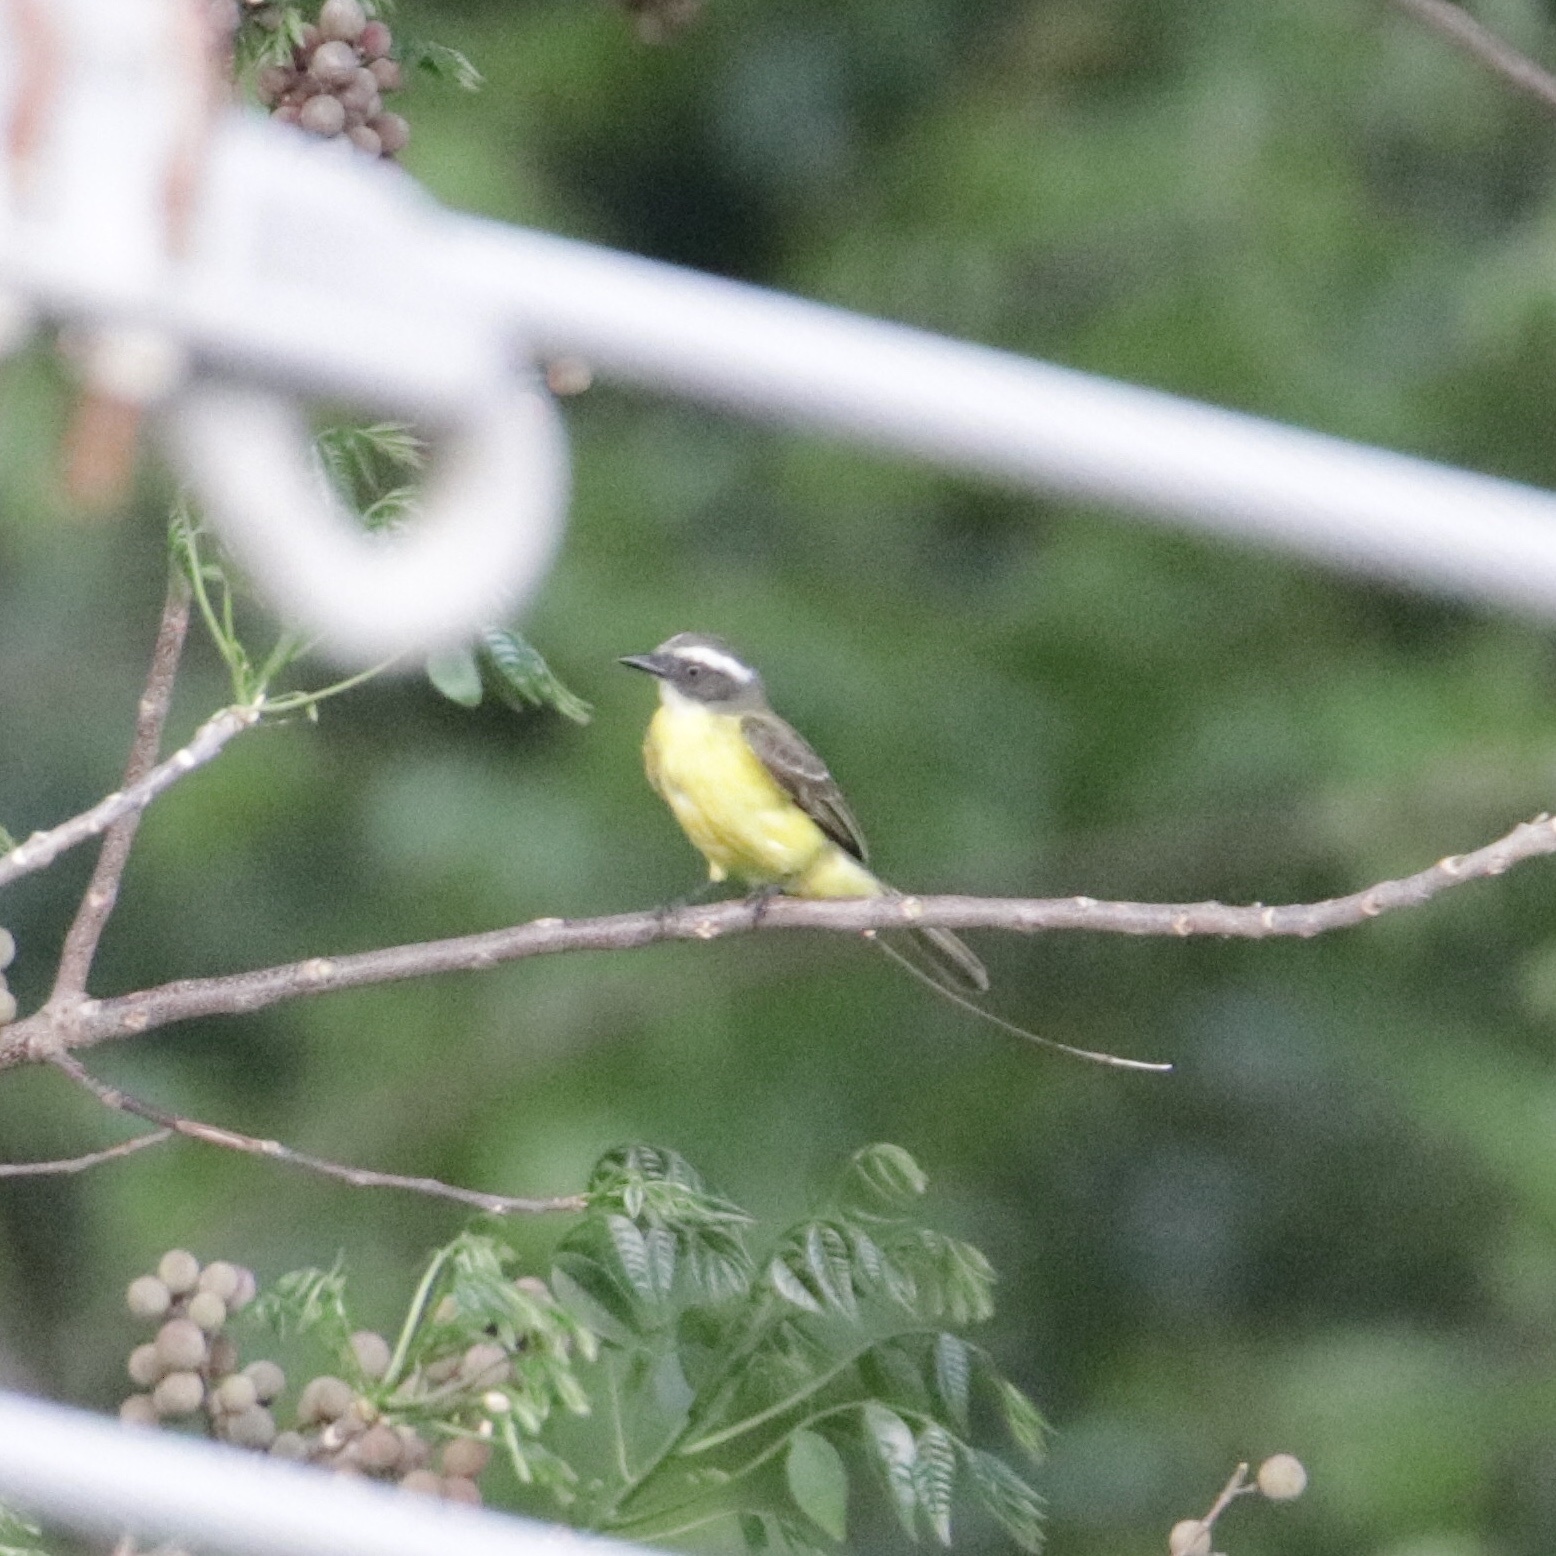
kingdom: Animalia
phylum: Chordata
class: Aves
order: Passeriformes
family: Tyrannidae
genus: Myiozetetes
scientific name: Myiozetetes similis
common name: Social flycatcher
